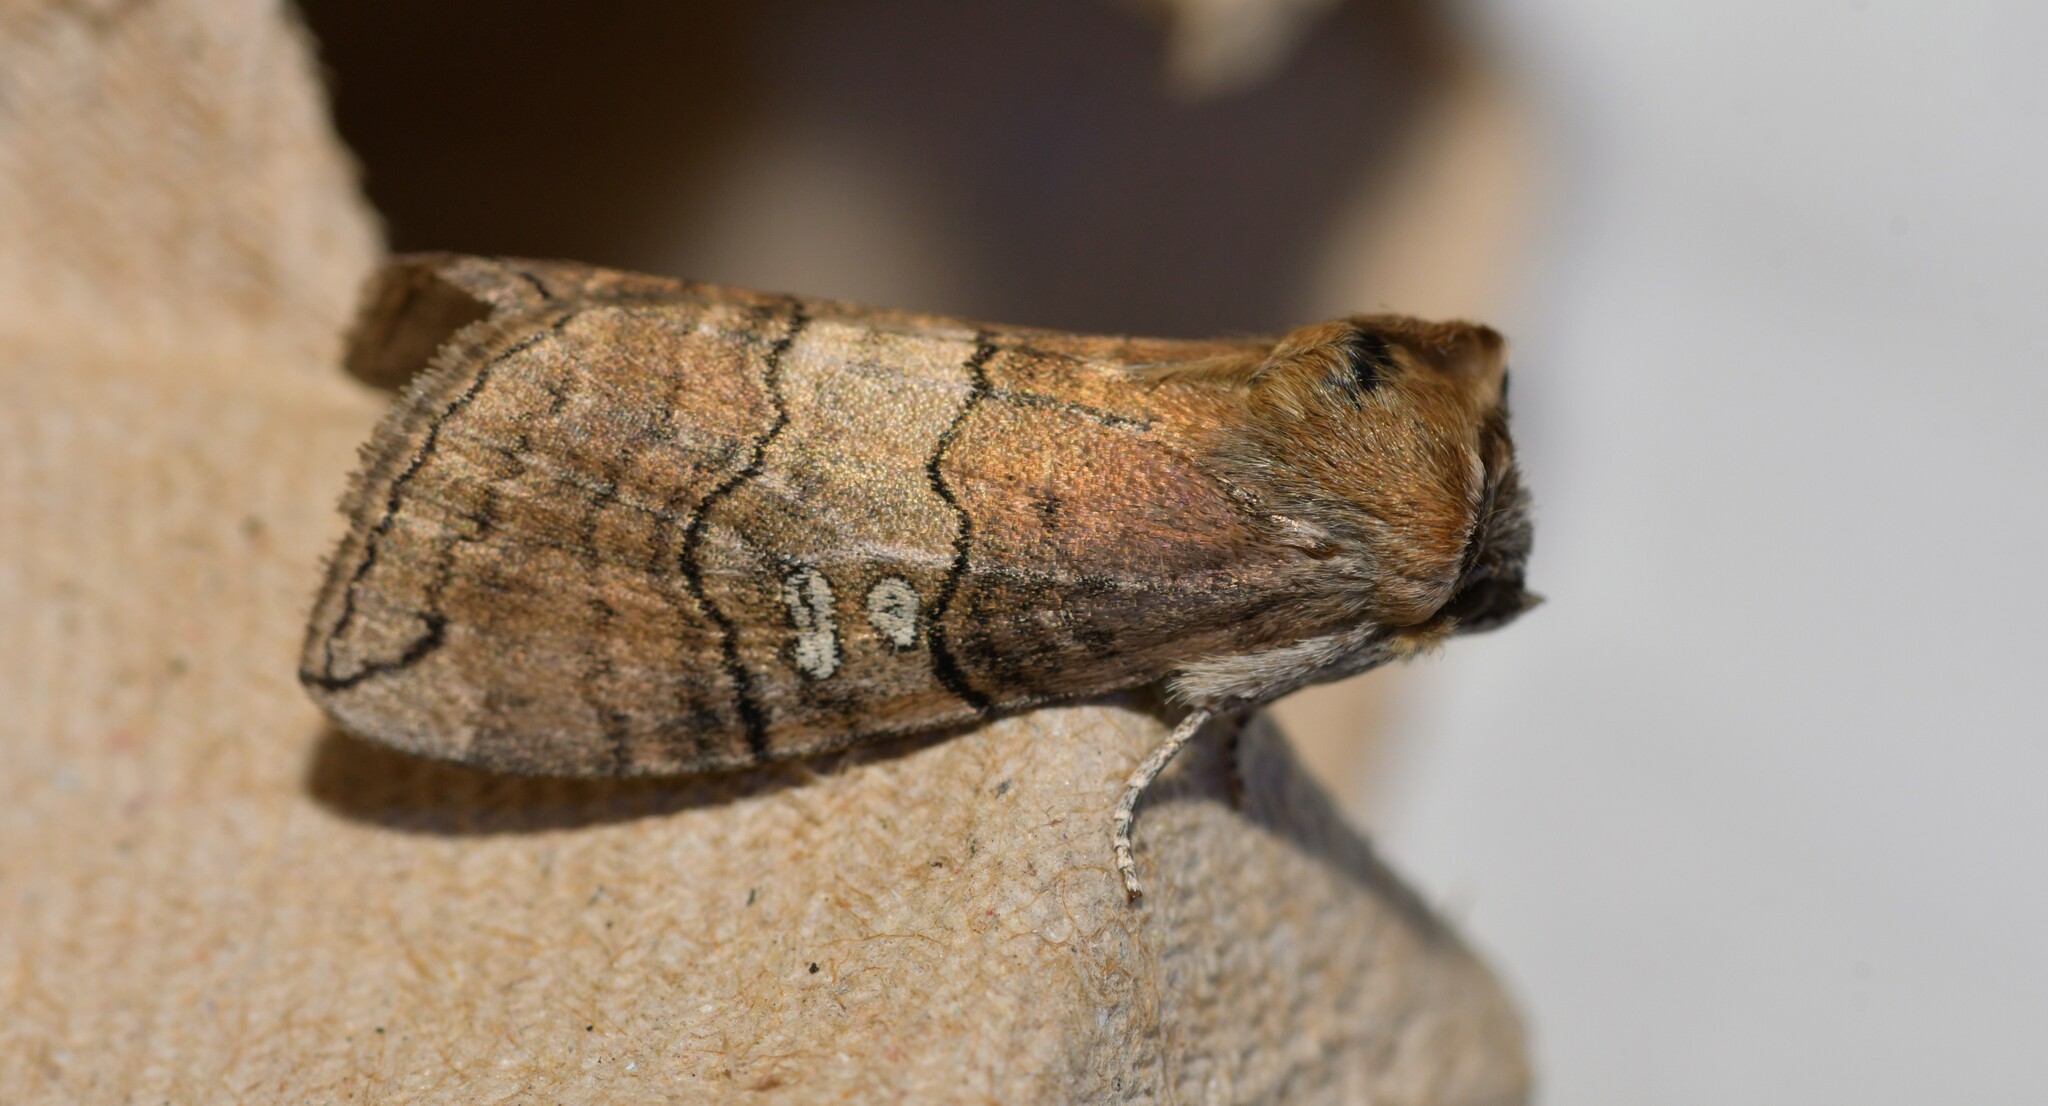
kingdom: Animalia
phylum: Arthropoda
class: Insecta
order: Lepidoptera
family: Drepanidae
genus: Tethea
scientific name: Tethea ocularis
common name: Figure of eighty
